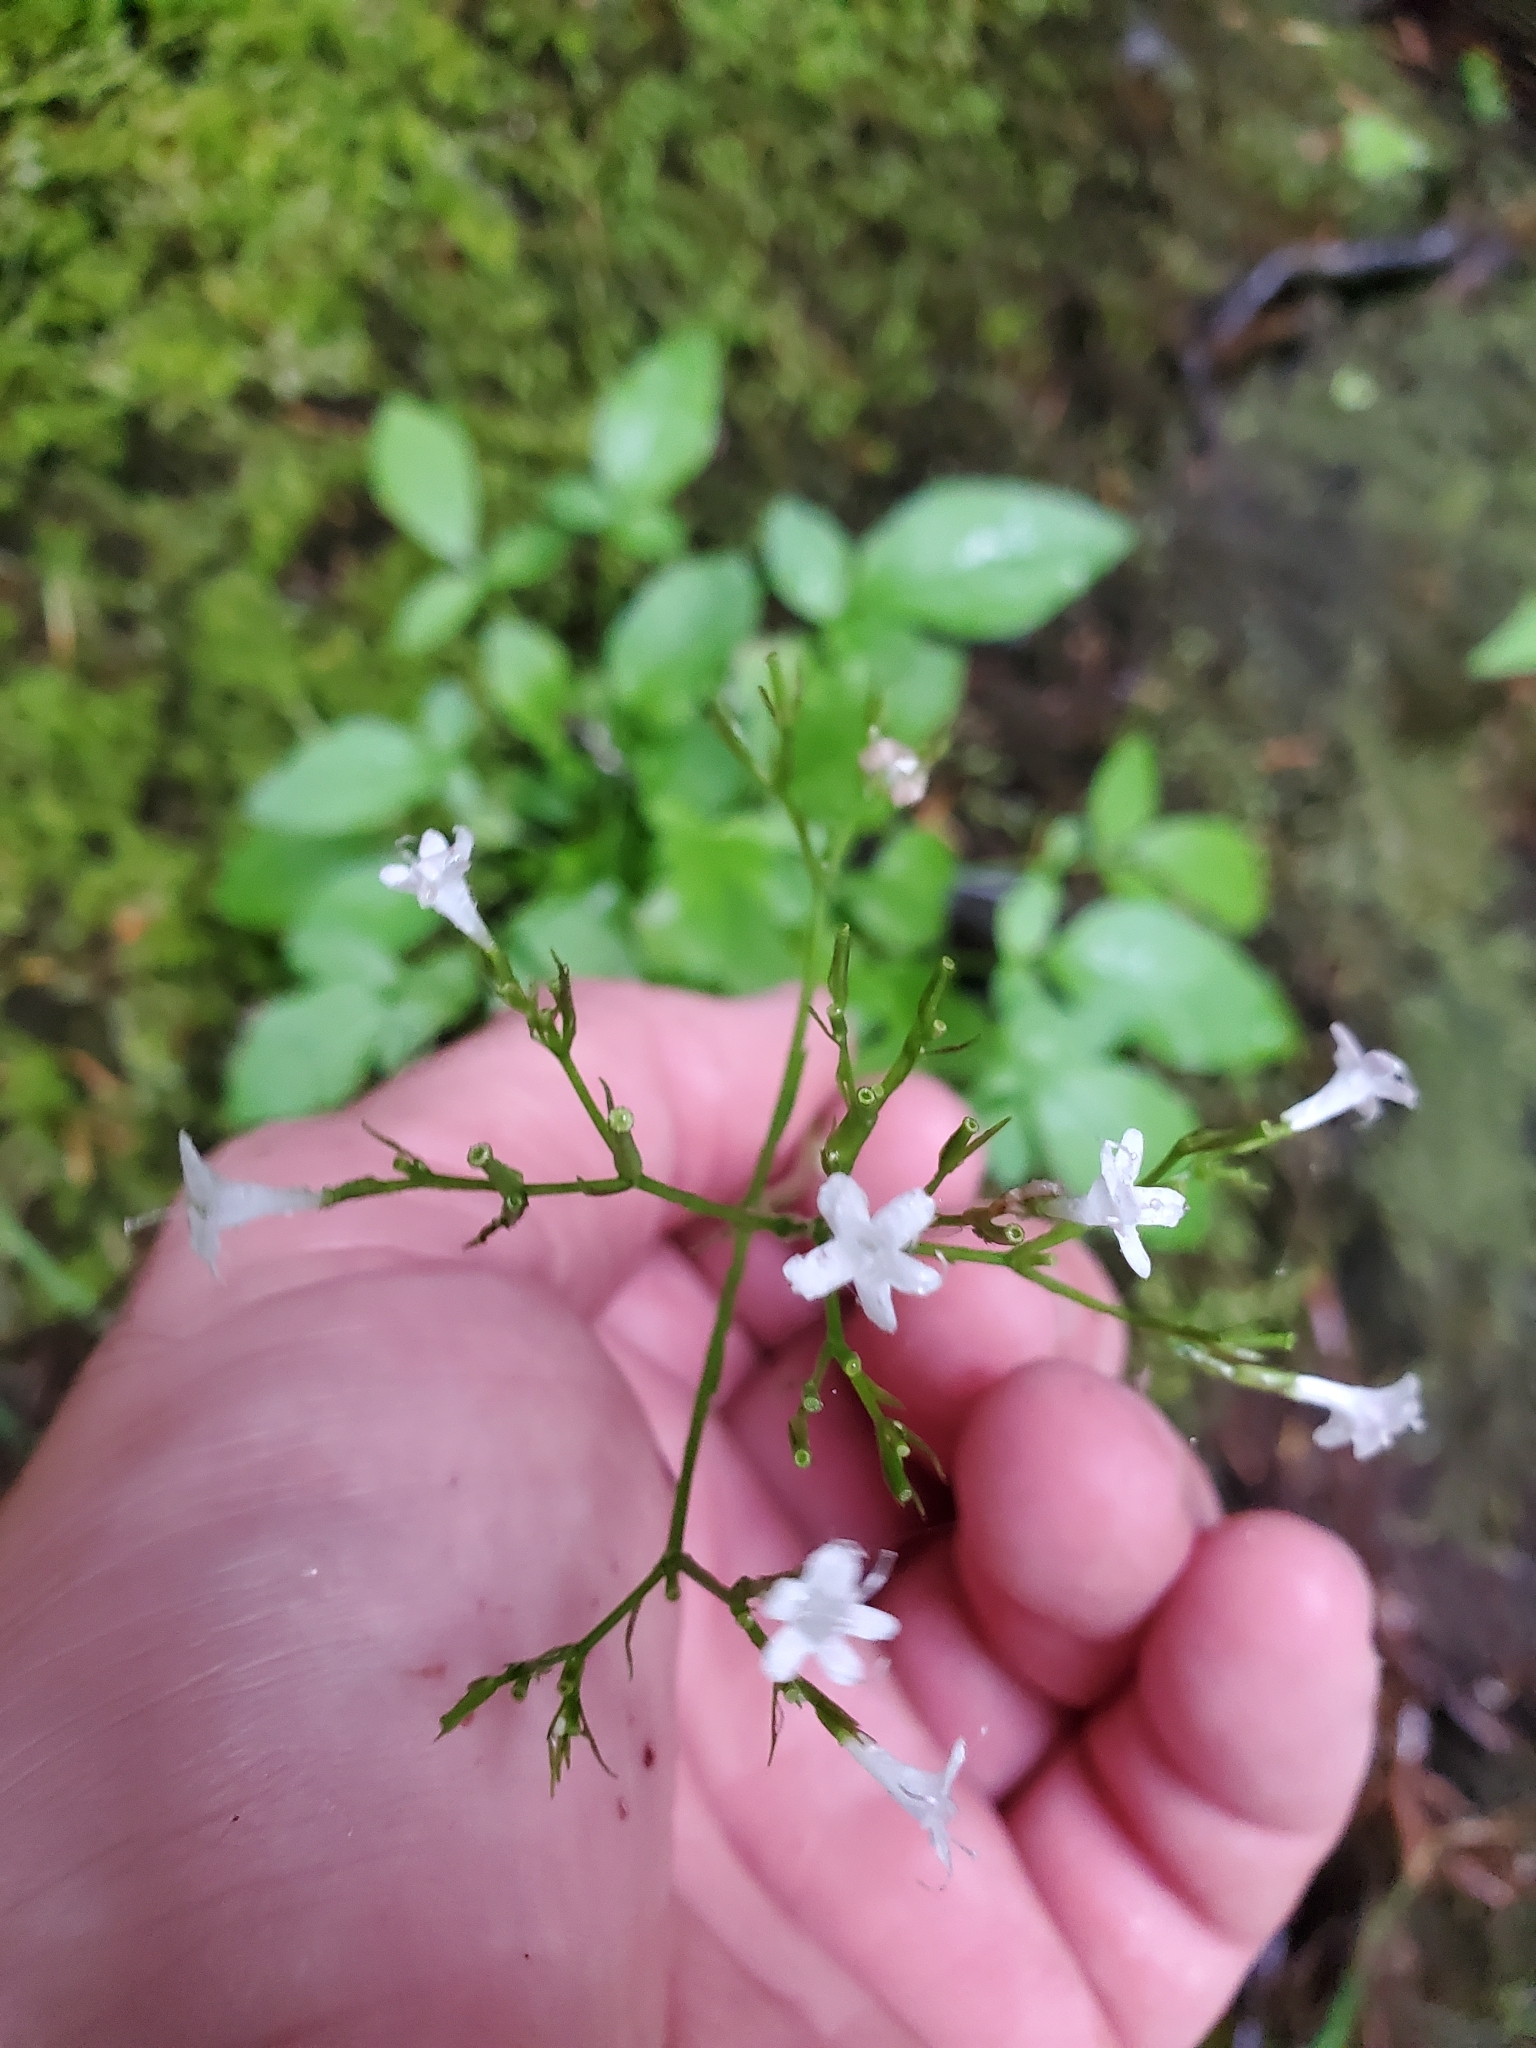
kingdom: Plantae
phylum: Tracheophyta
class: Magnoliopsida
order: Dipsacales
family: Caprifoliaceae
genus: Valeriana
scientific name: Valeriana sitchensis
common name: Pacific valerian
